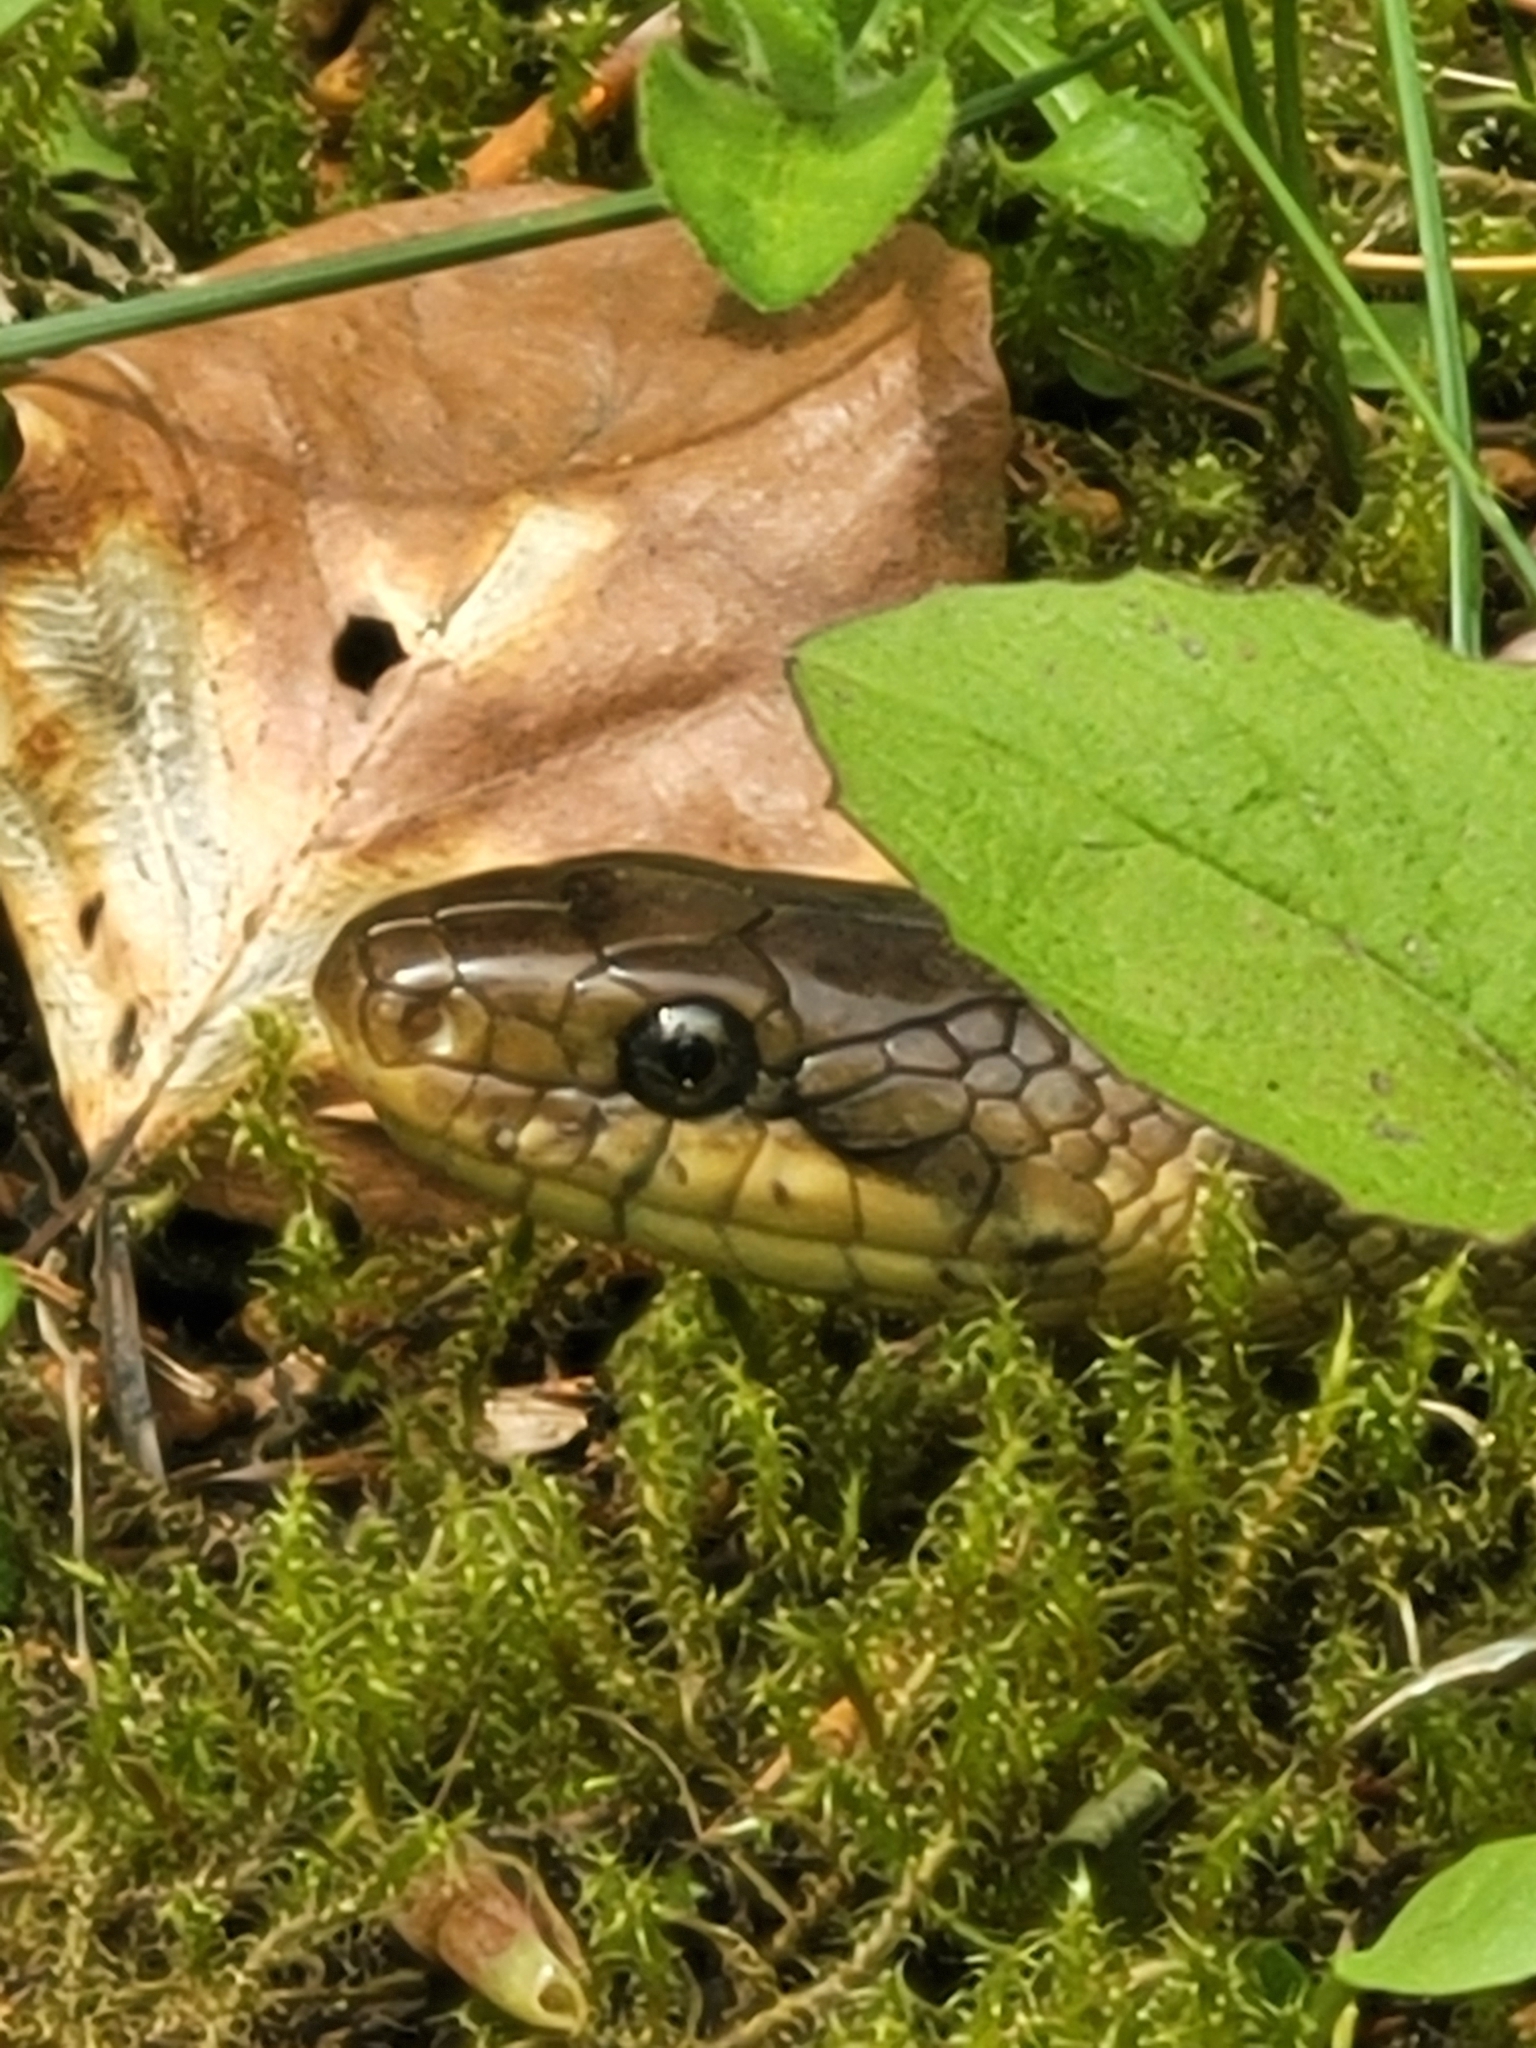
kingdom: Animalia
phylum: Chordata
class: Squamata
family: Colubridae
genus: Zamenis
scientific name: Zamenis longissimus
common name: Aesculapean snake
